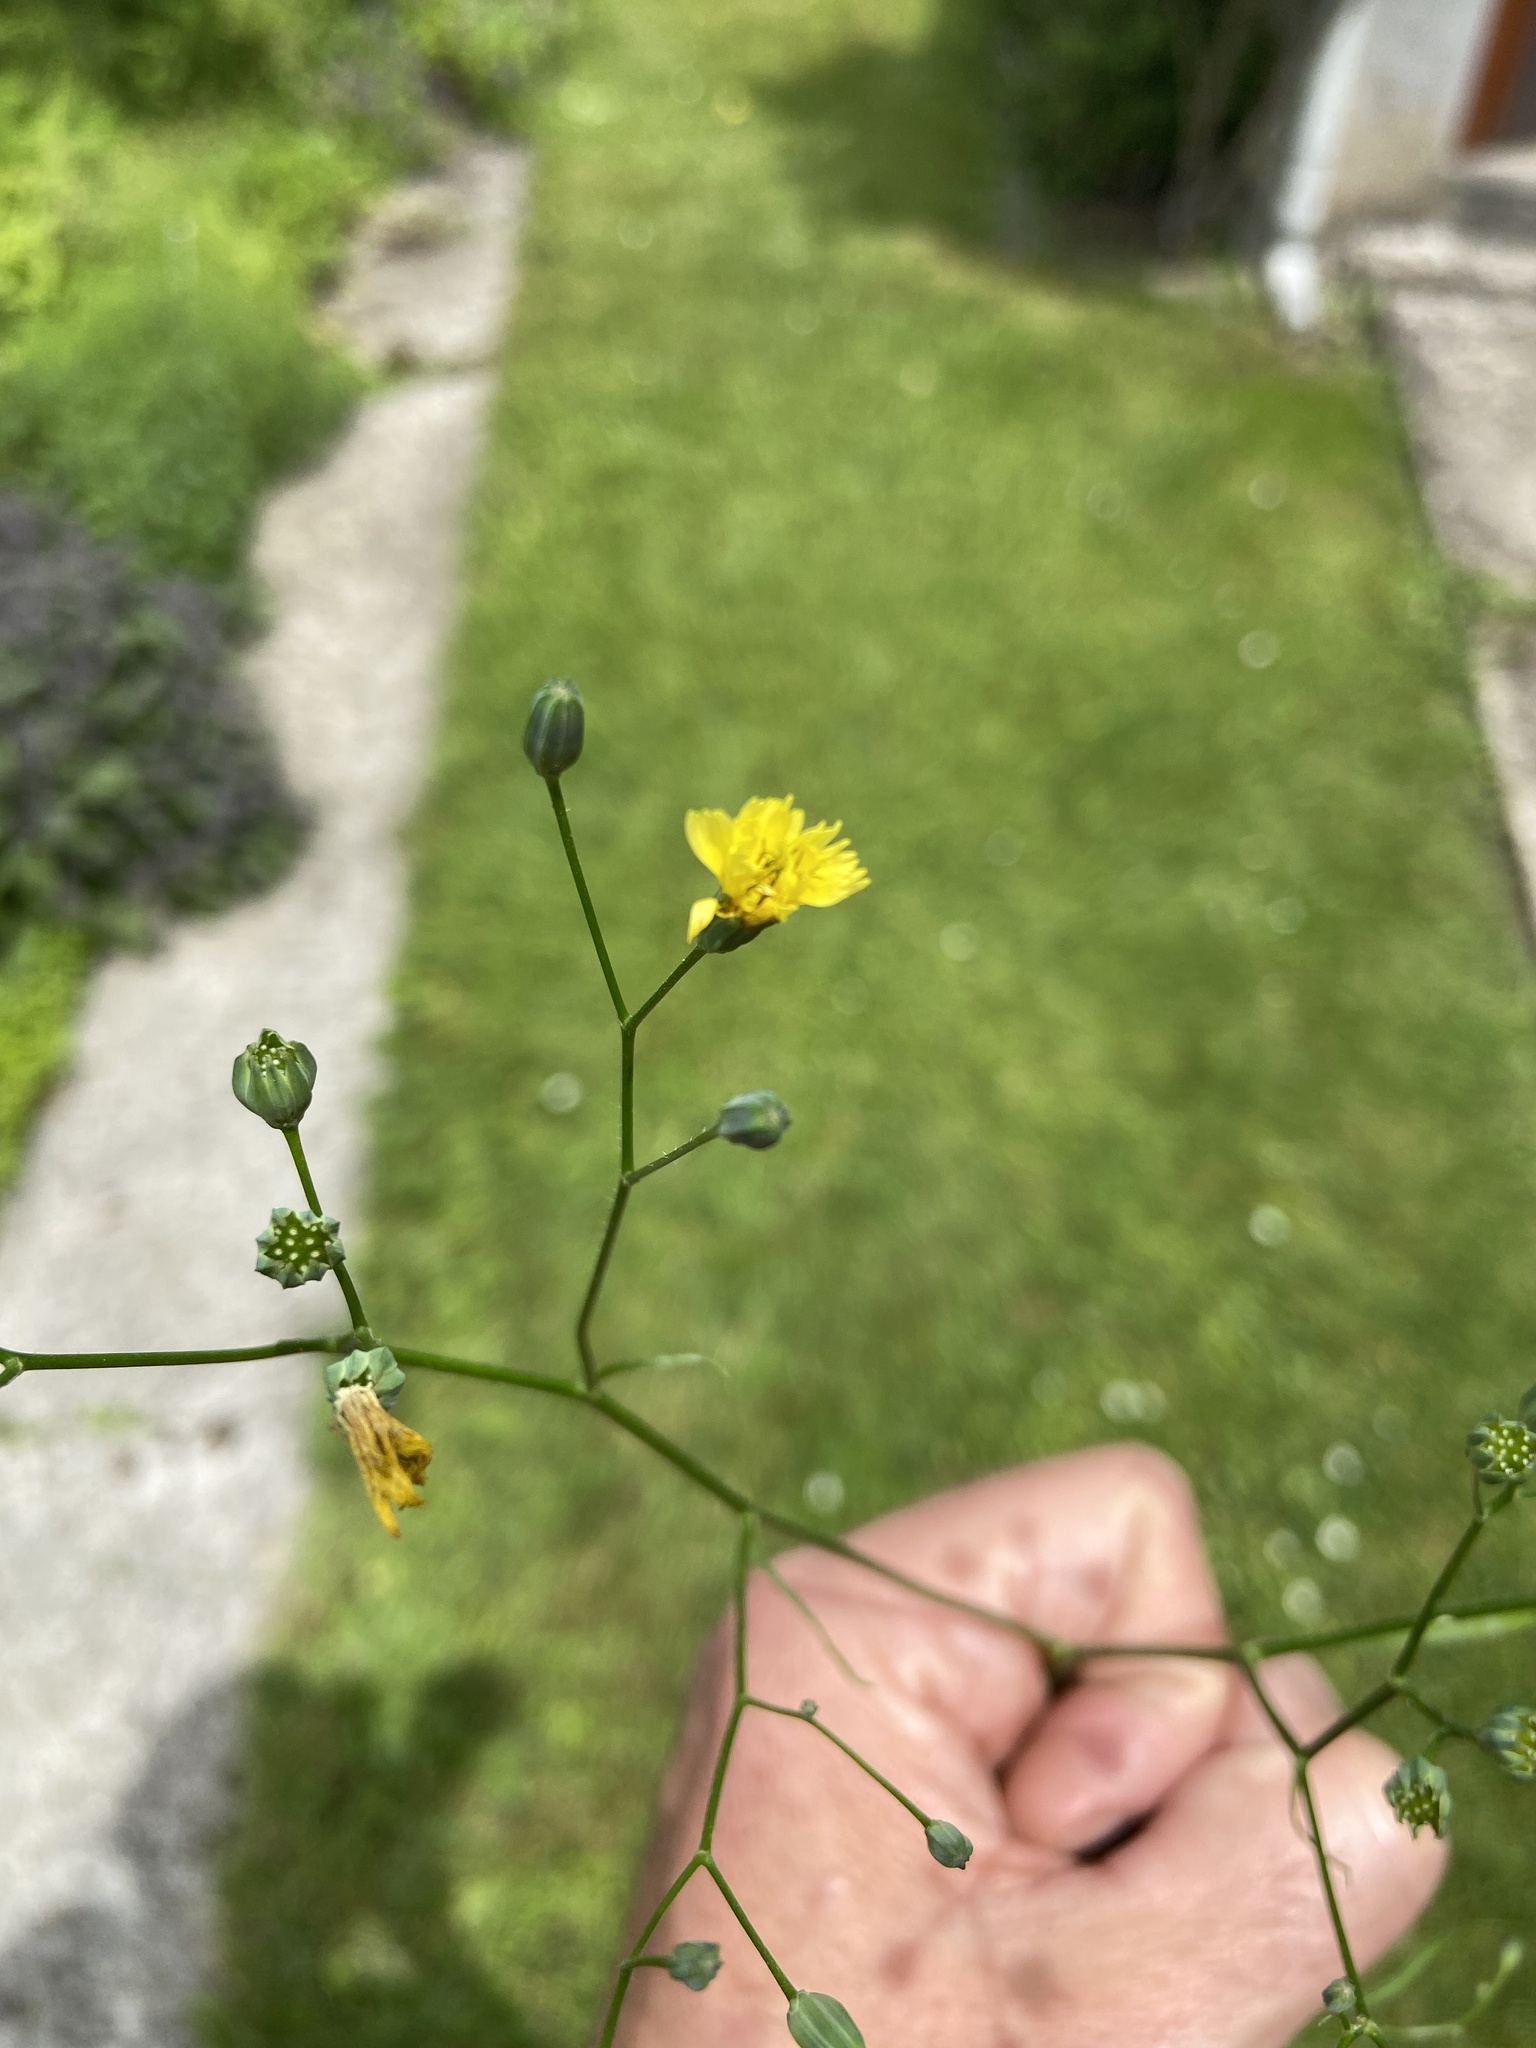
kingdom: Plantae
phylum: Tracheophyta
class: Magnoliopsida
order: Asterales
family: Asteraceae
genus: Lapsana
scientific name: Lapsana communis
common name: Nipplewort
